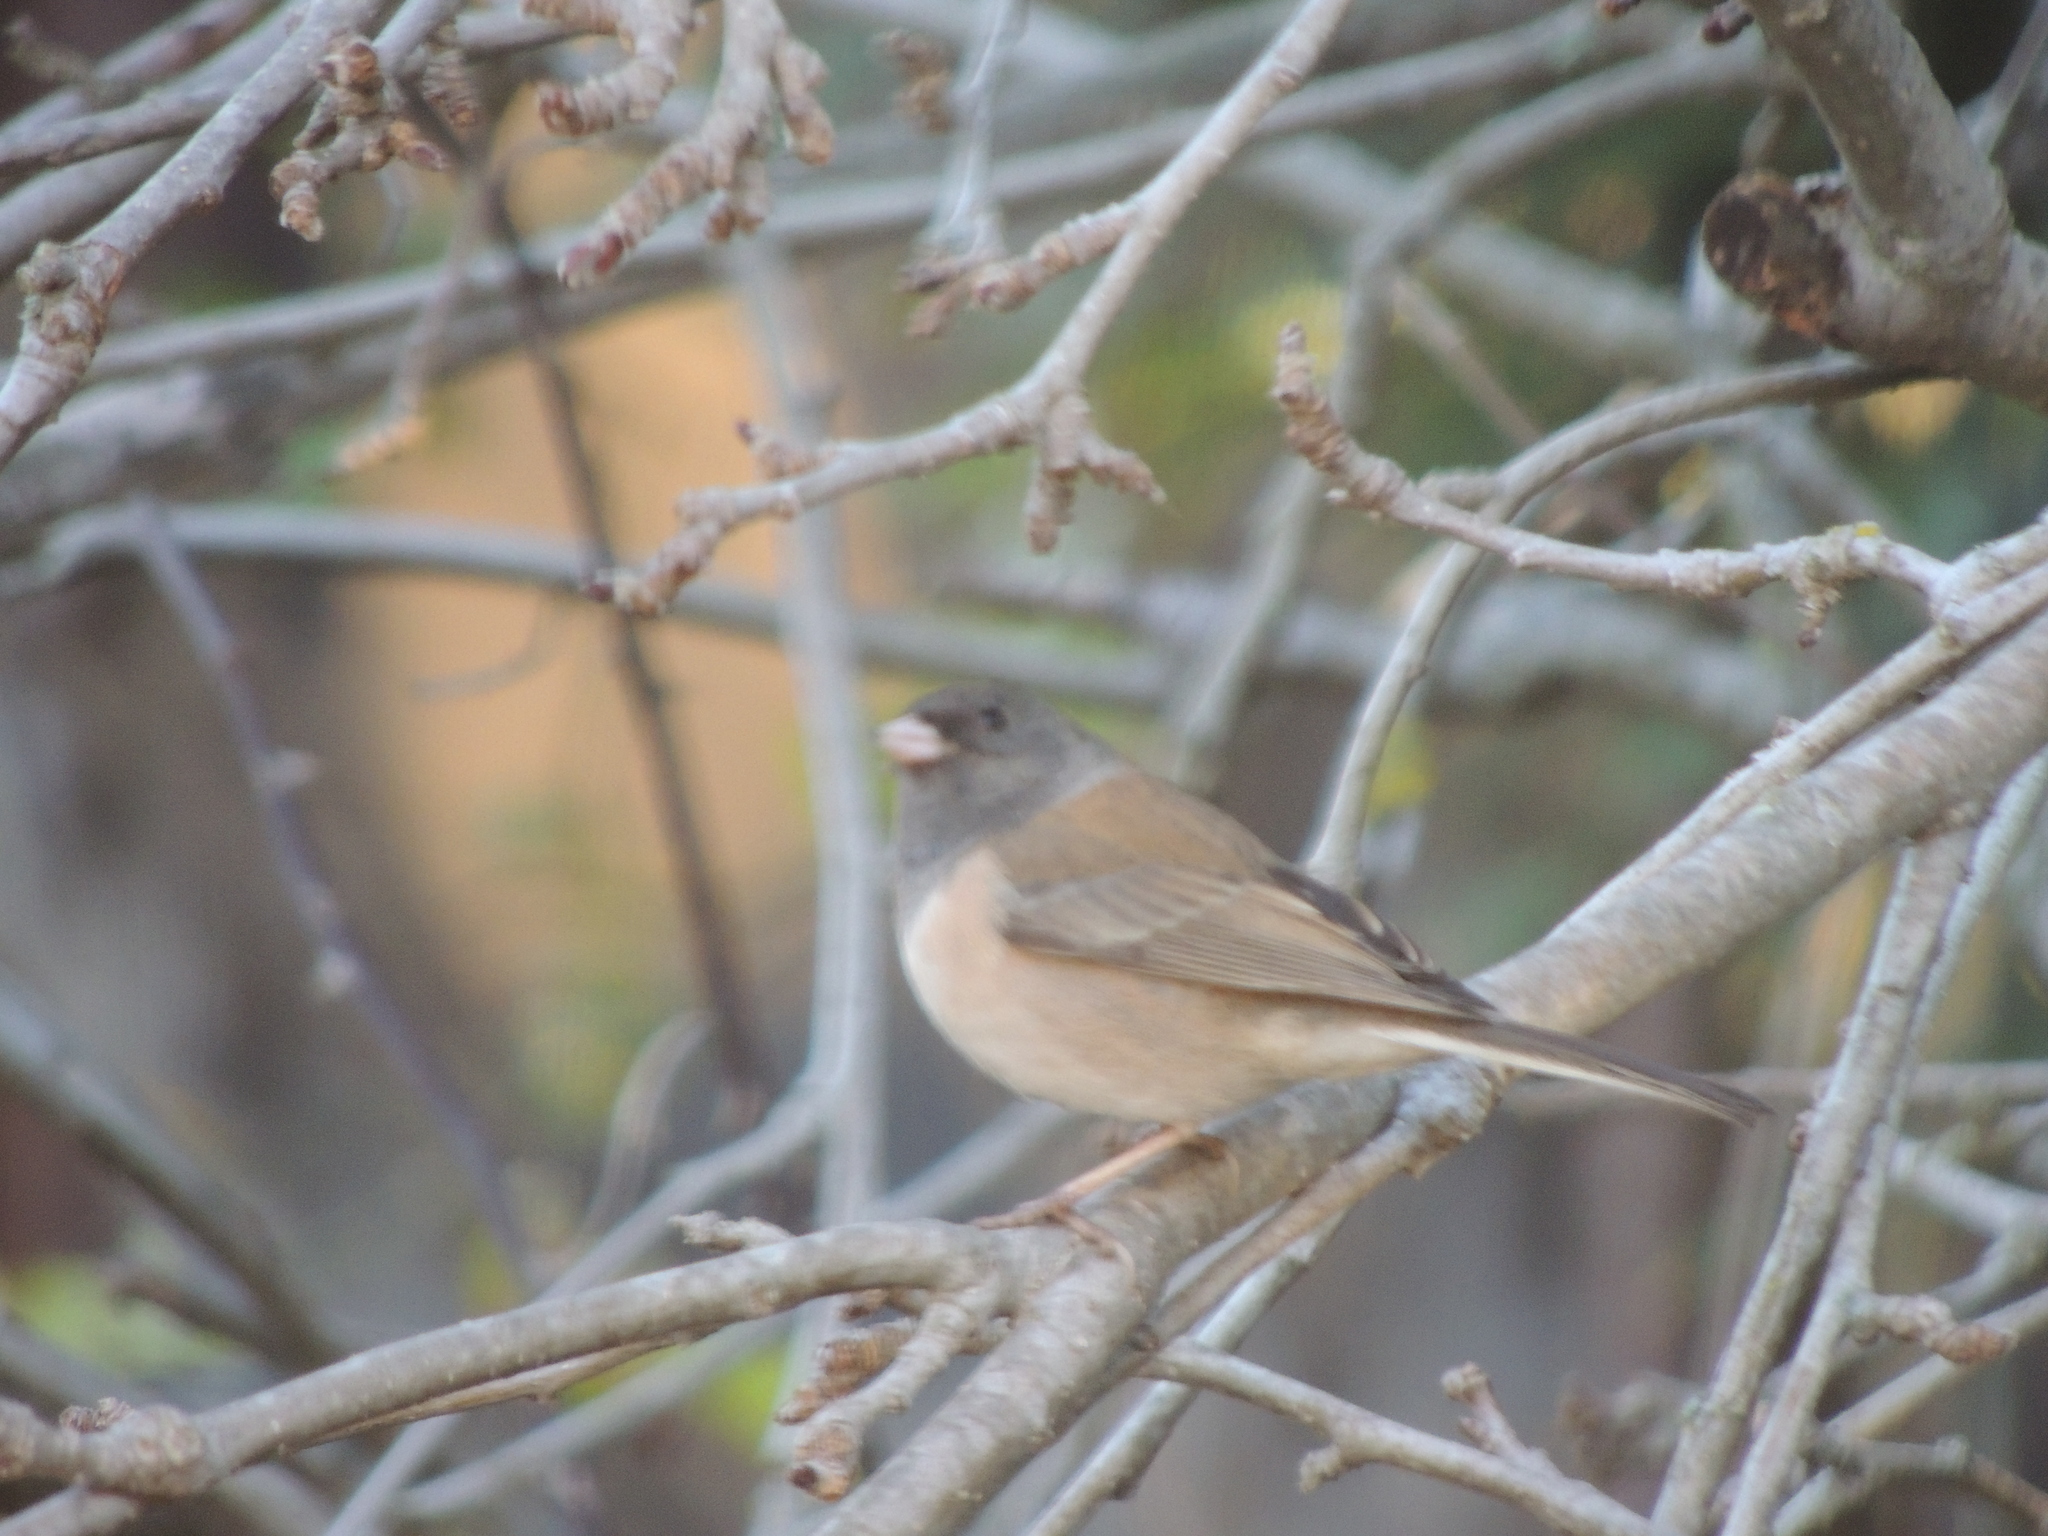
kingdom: Animalia
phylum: Chordata
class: Aves
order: Passeriformes
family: Passerellidae
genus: Junco
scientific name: Junco hyemalis
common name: Dark-eyed junco
